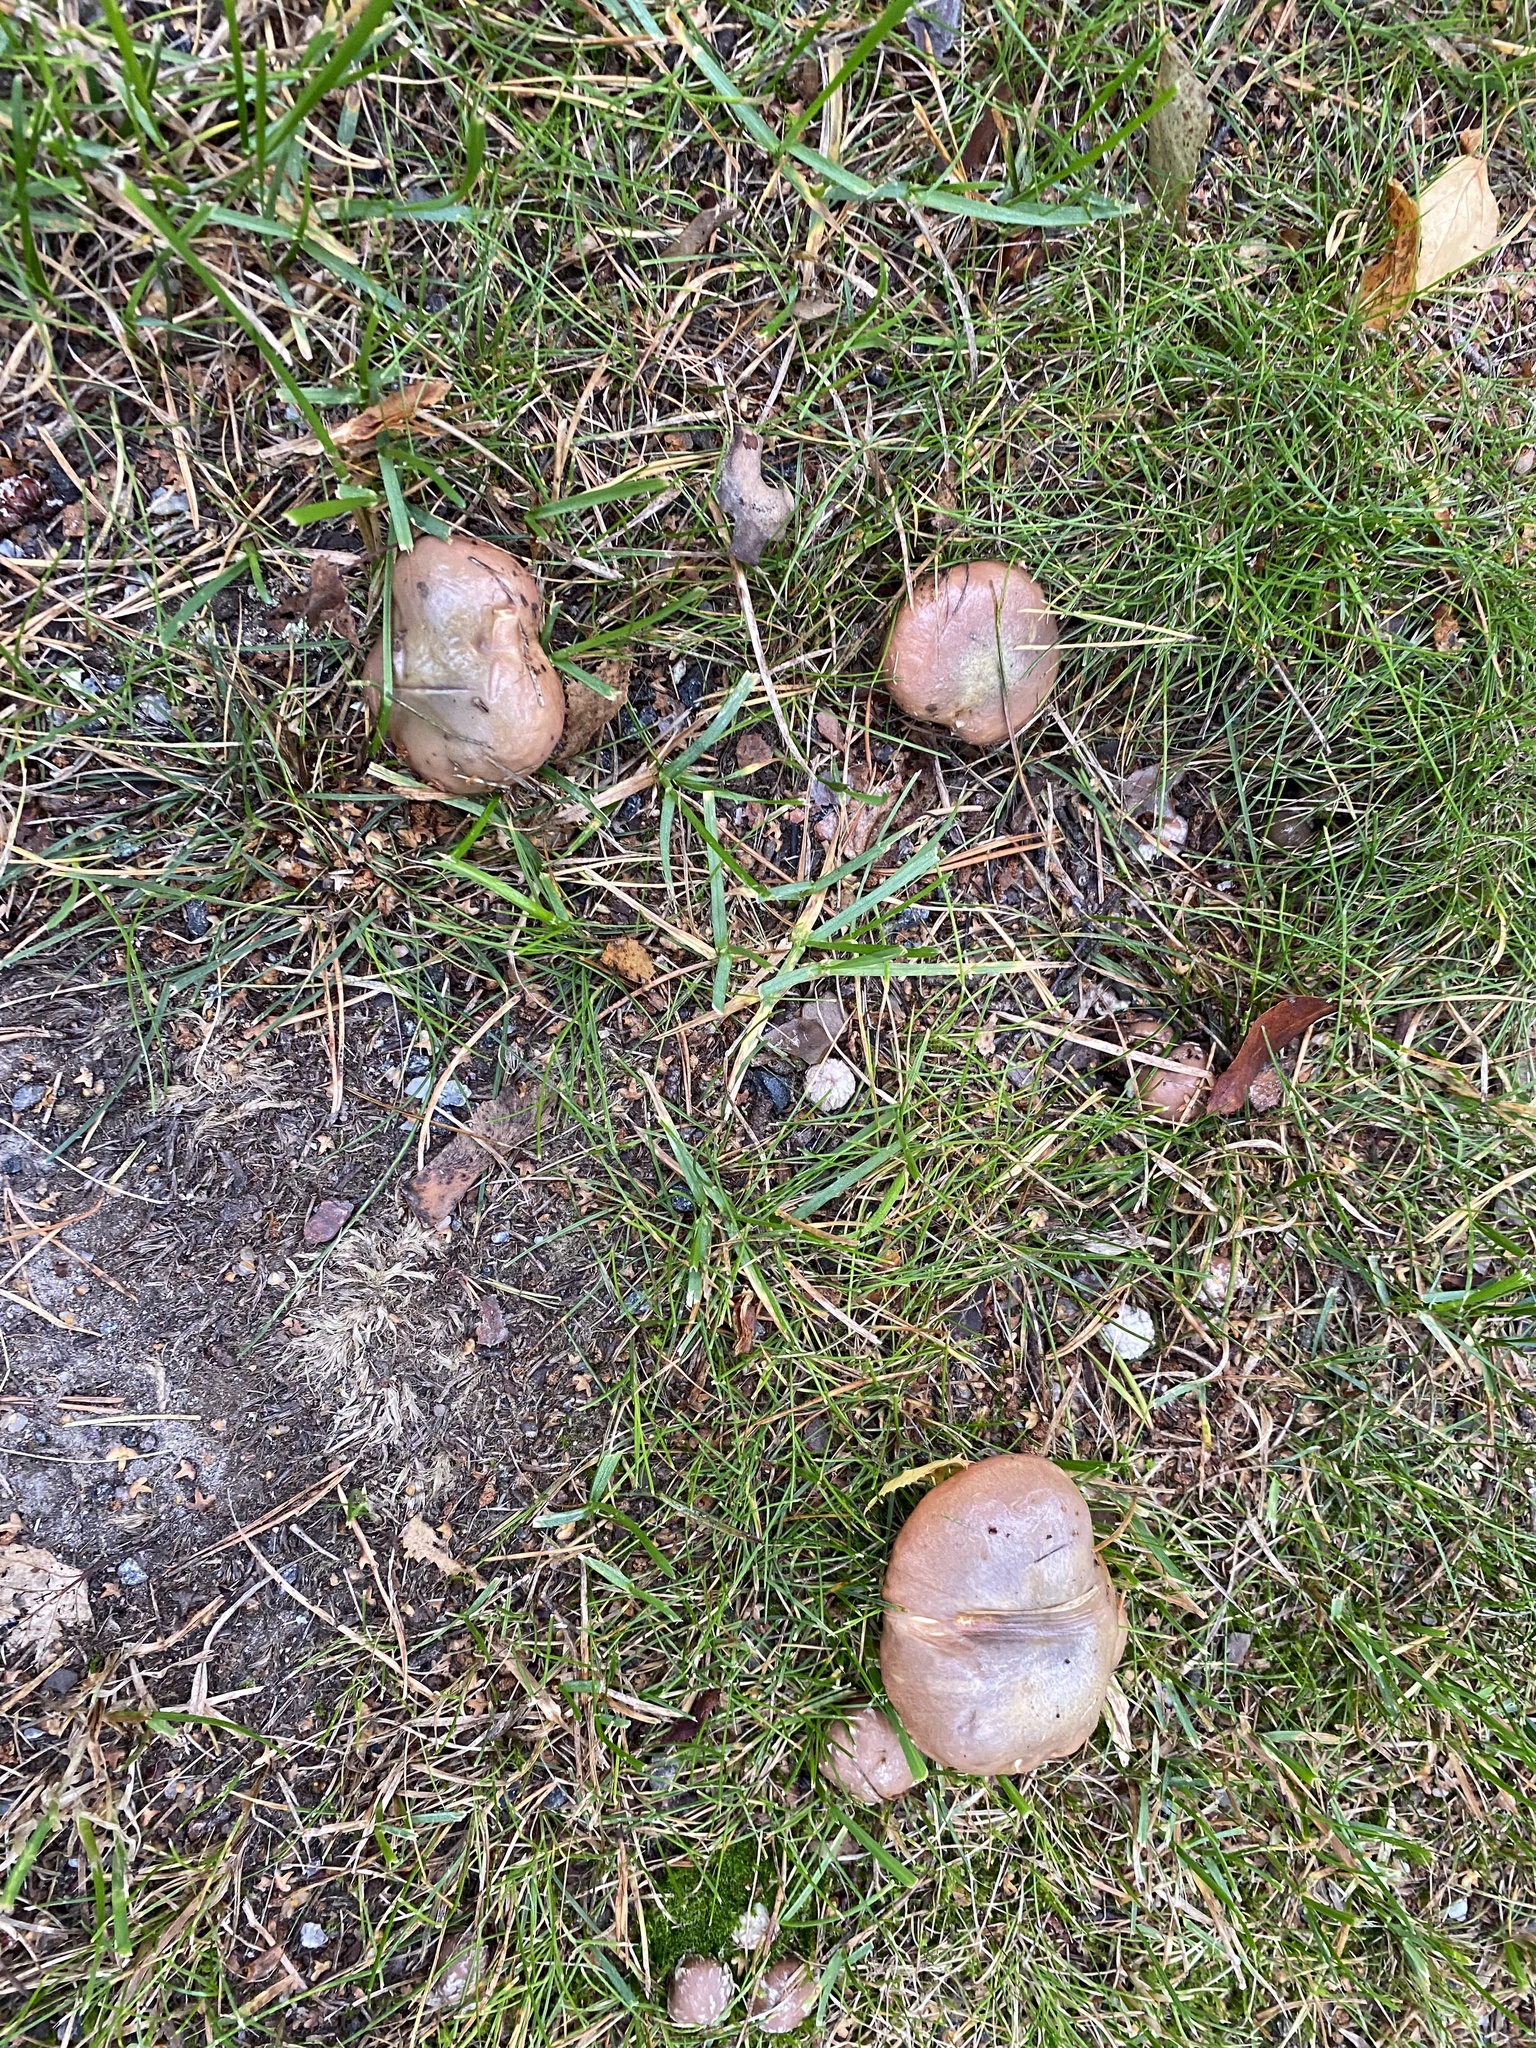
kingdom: Fungi
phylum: Basidiomycota
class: Agaricomycetes
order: Boletales
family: Suillaceae
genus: Suillus
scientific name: Suillus luteus
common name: Slippery jack
